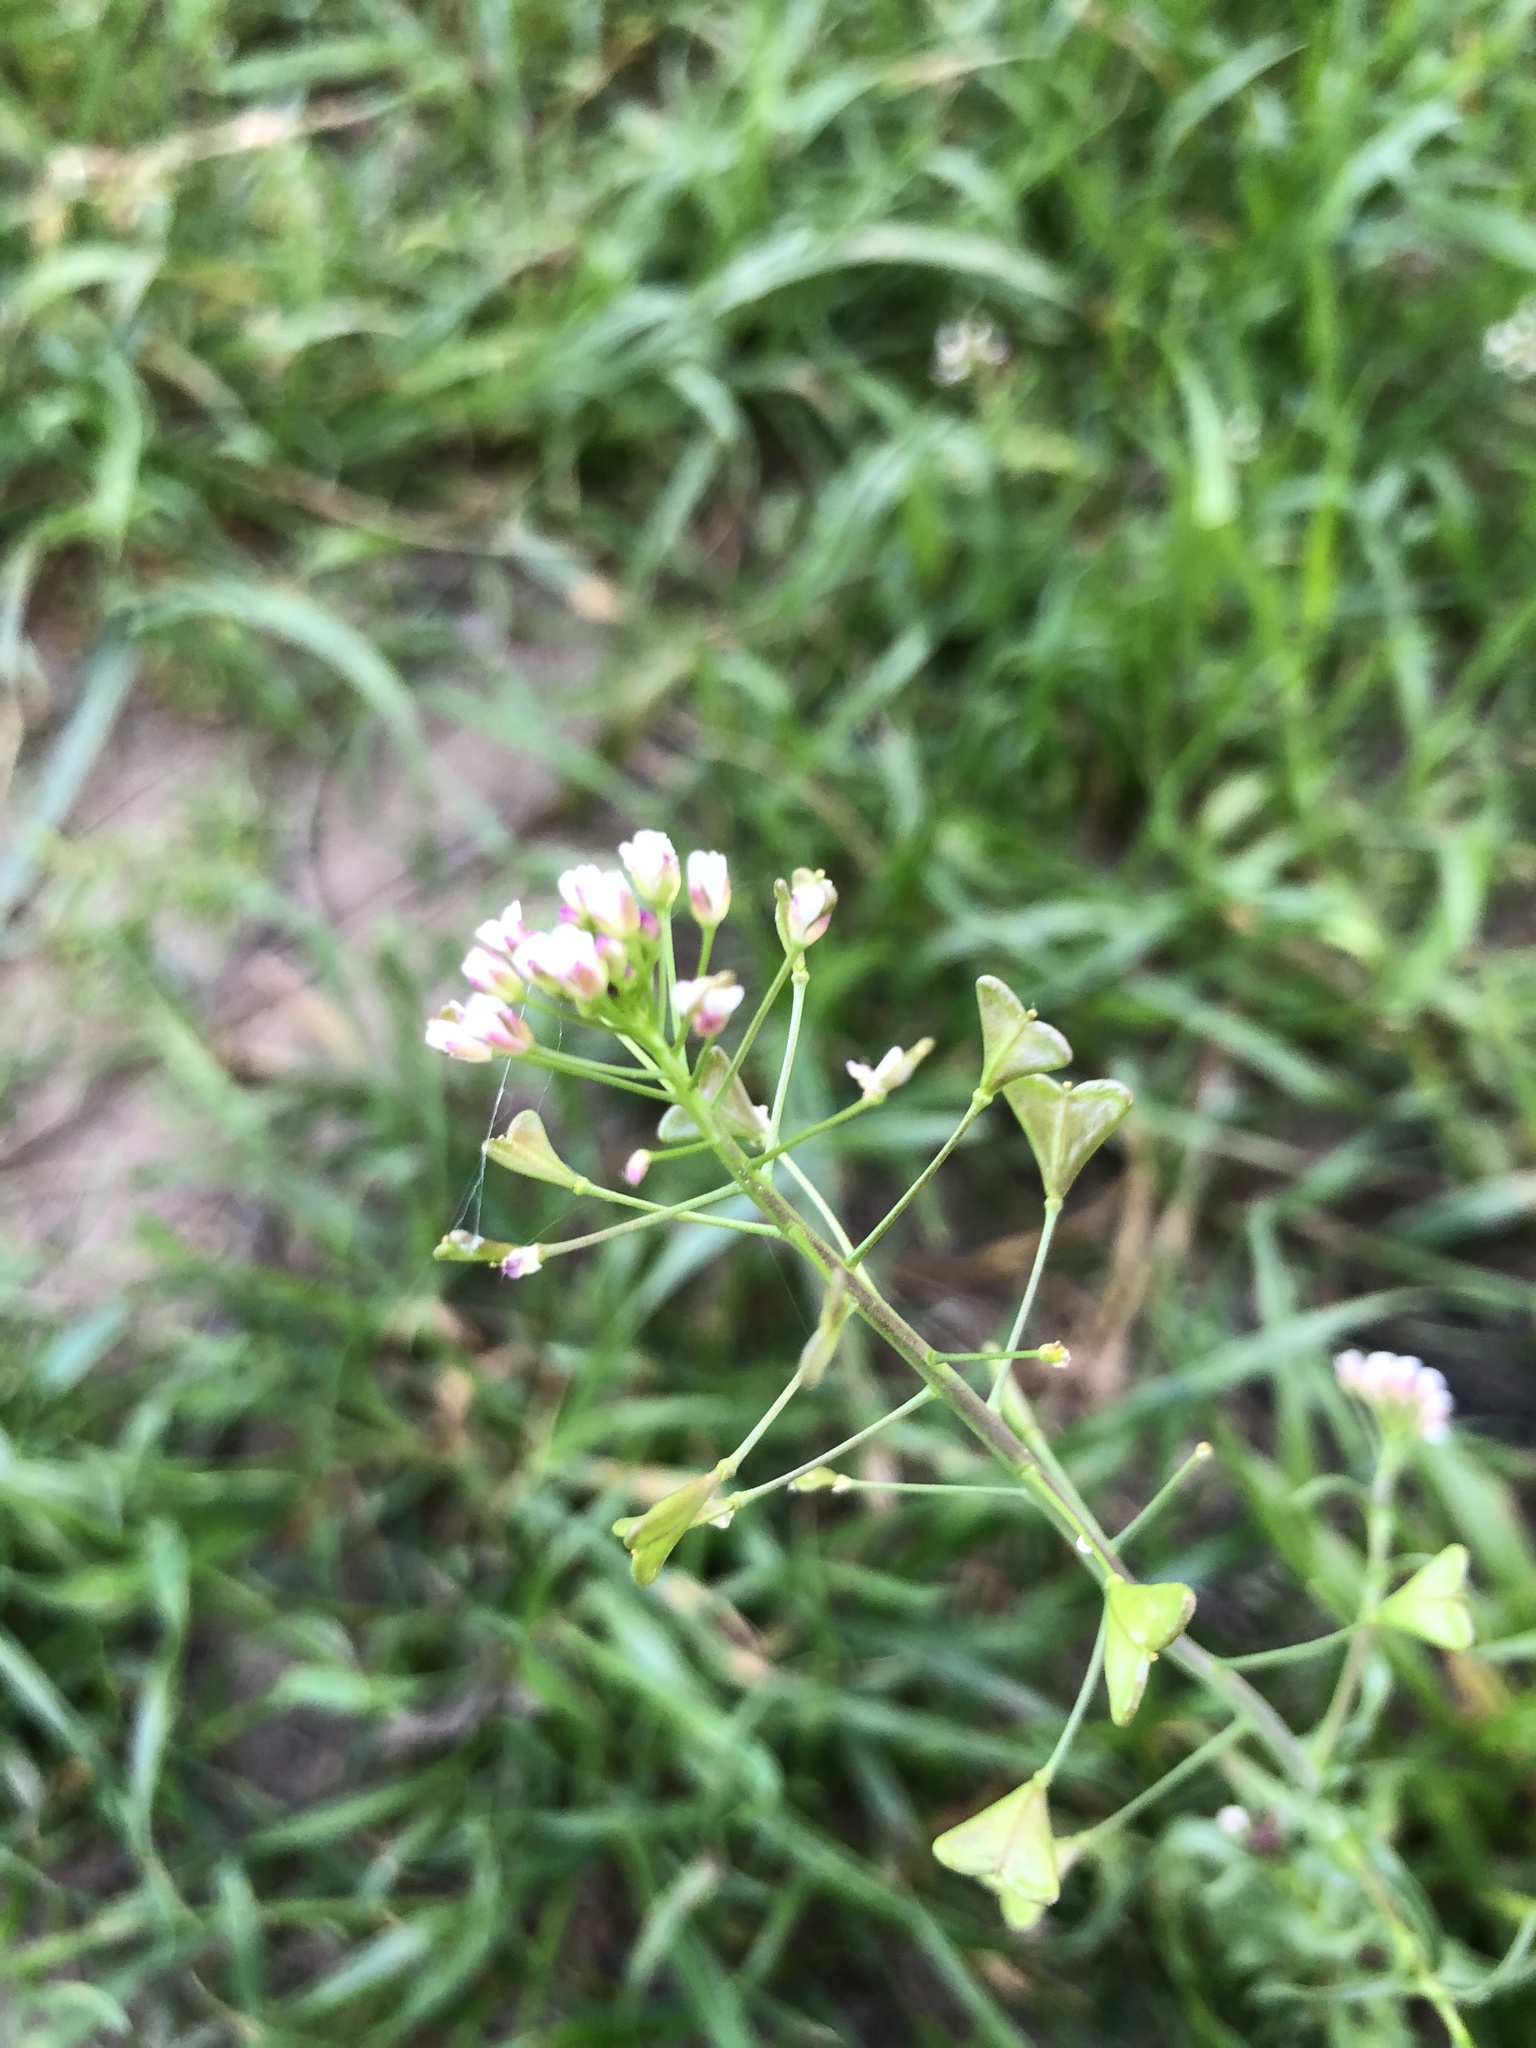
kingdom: Plantae
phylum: Tracheophyta
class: Magnoliopsida
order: Brassicales
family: Brassicaceae
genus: Capsella
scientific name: Capsella bursa-pastoris
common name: Shepherd's purse
